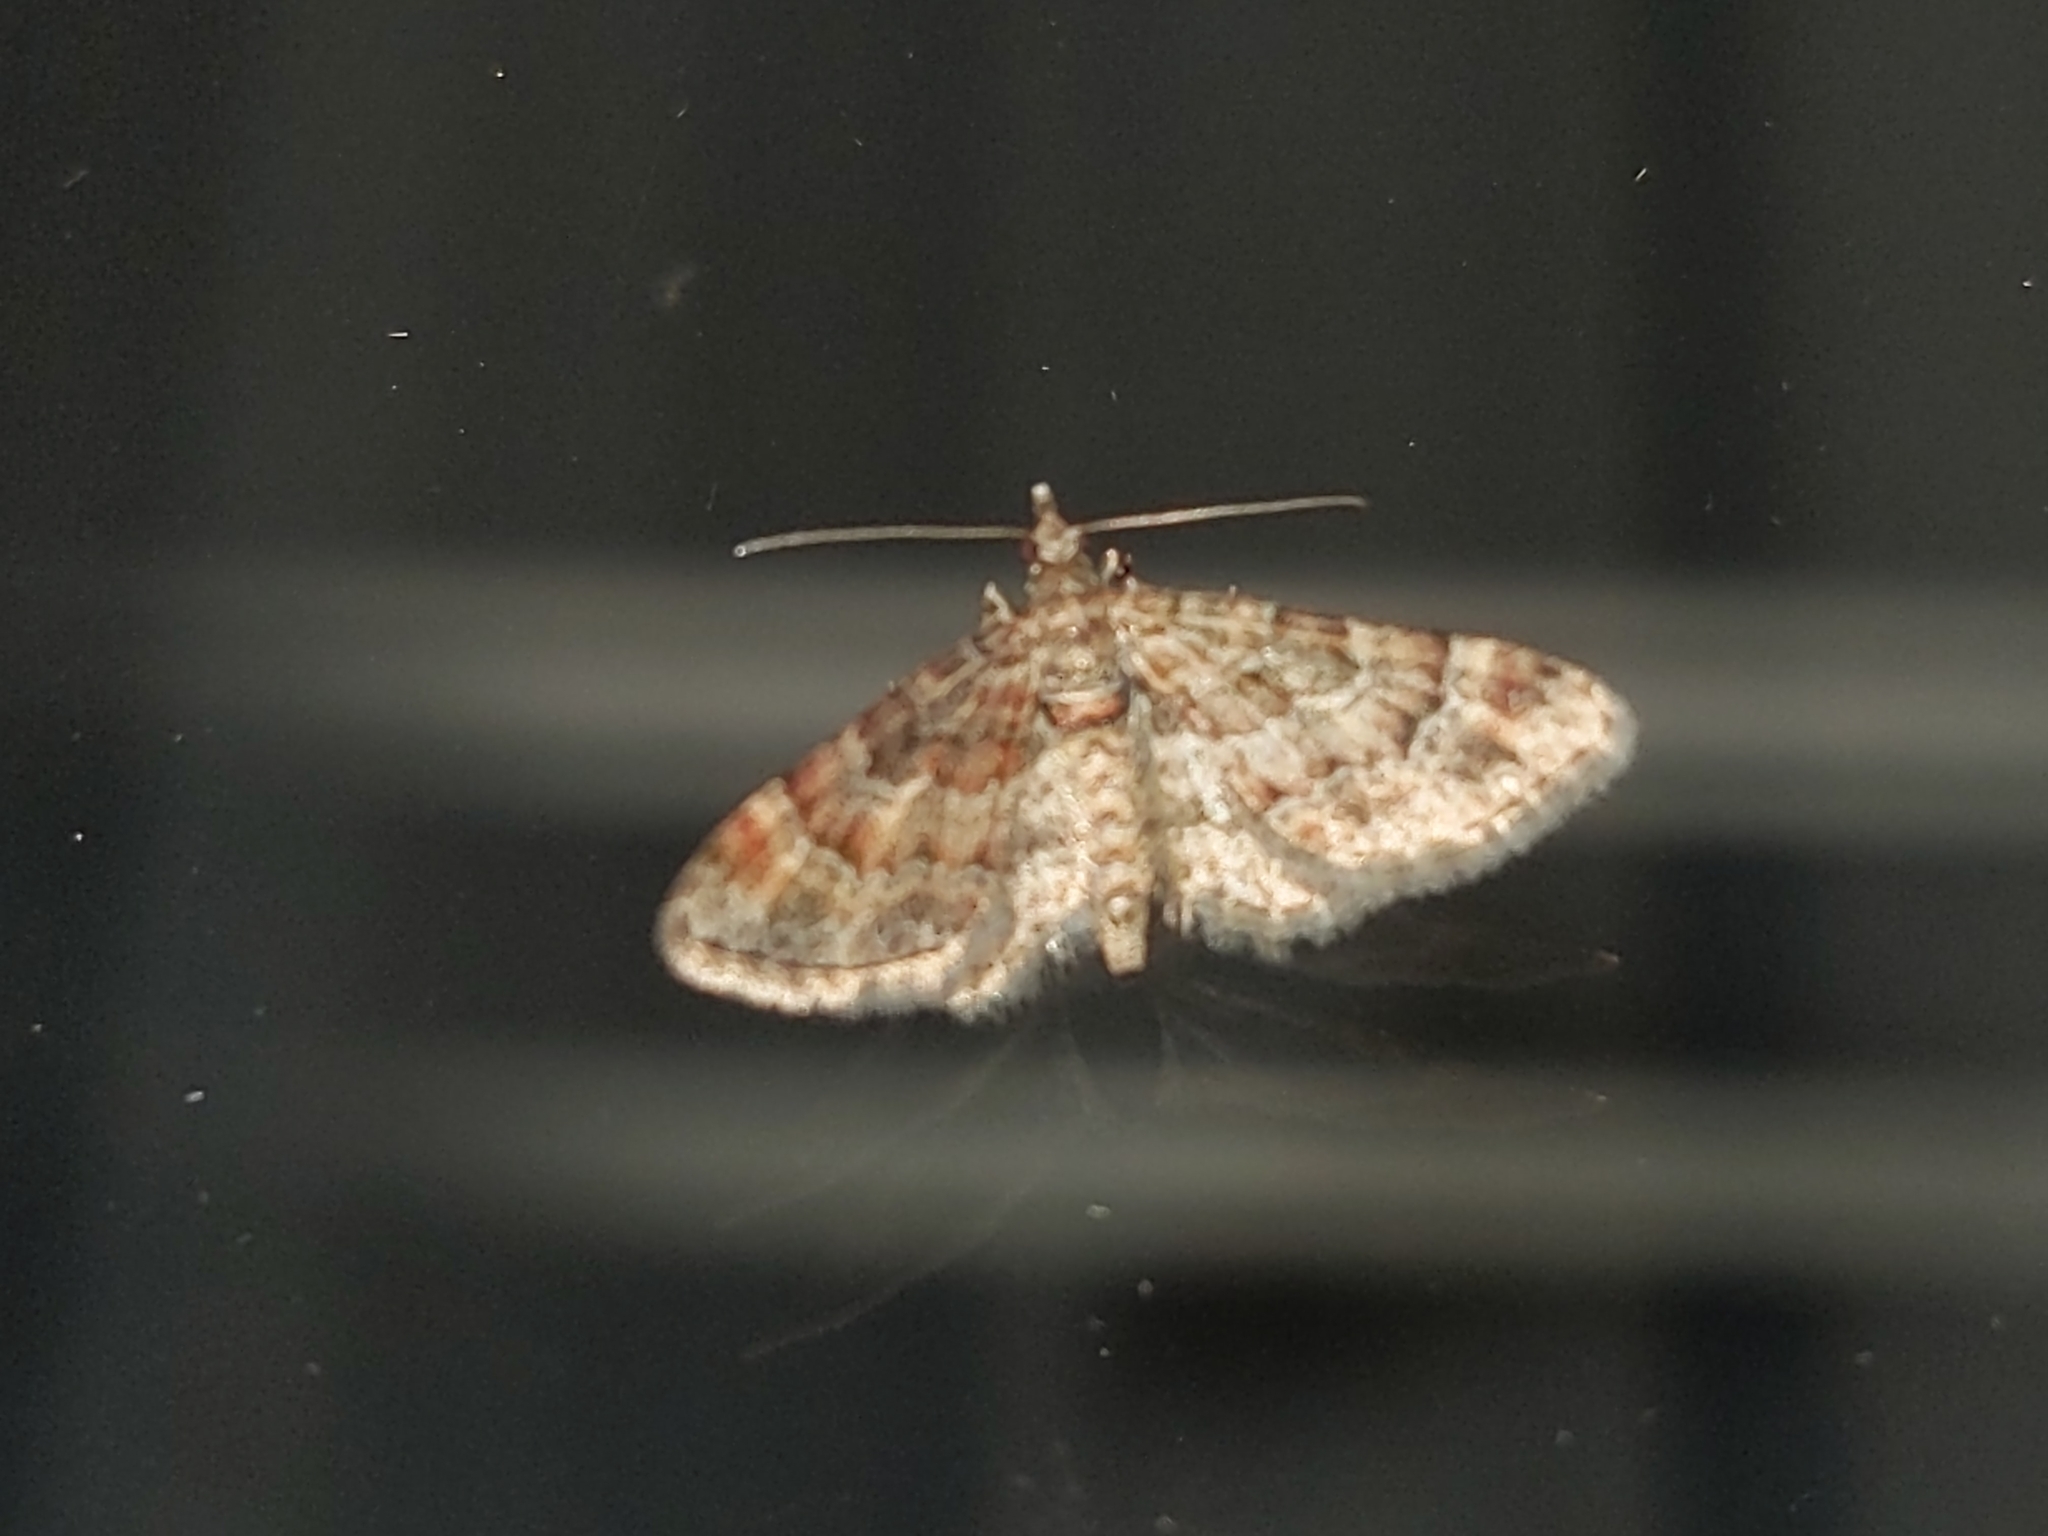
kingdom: Animalia
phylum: Arthropoda
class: Insecta
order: Lepidoptera
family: Geometridae
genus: Gymnoscelis
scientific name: Gymnoscelis rufifasciata
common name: Double-striped pug
